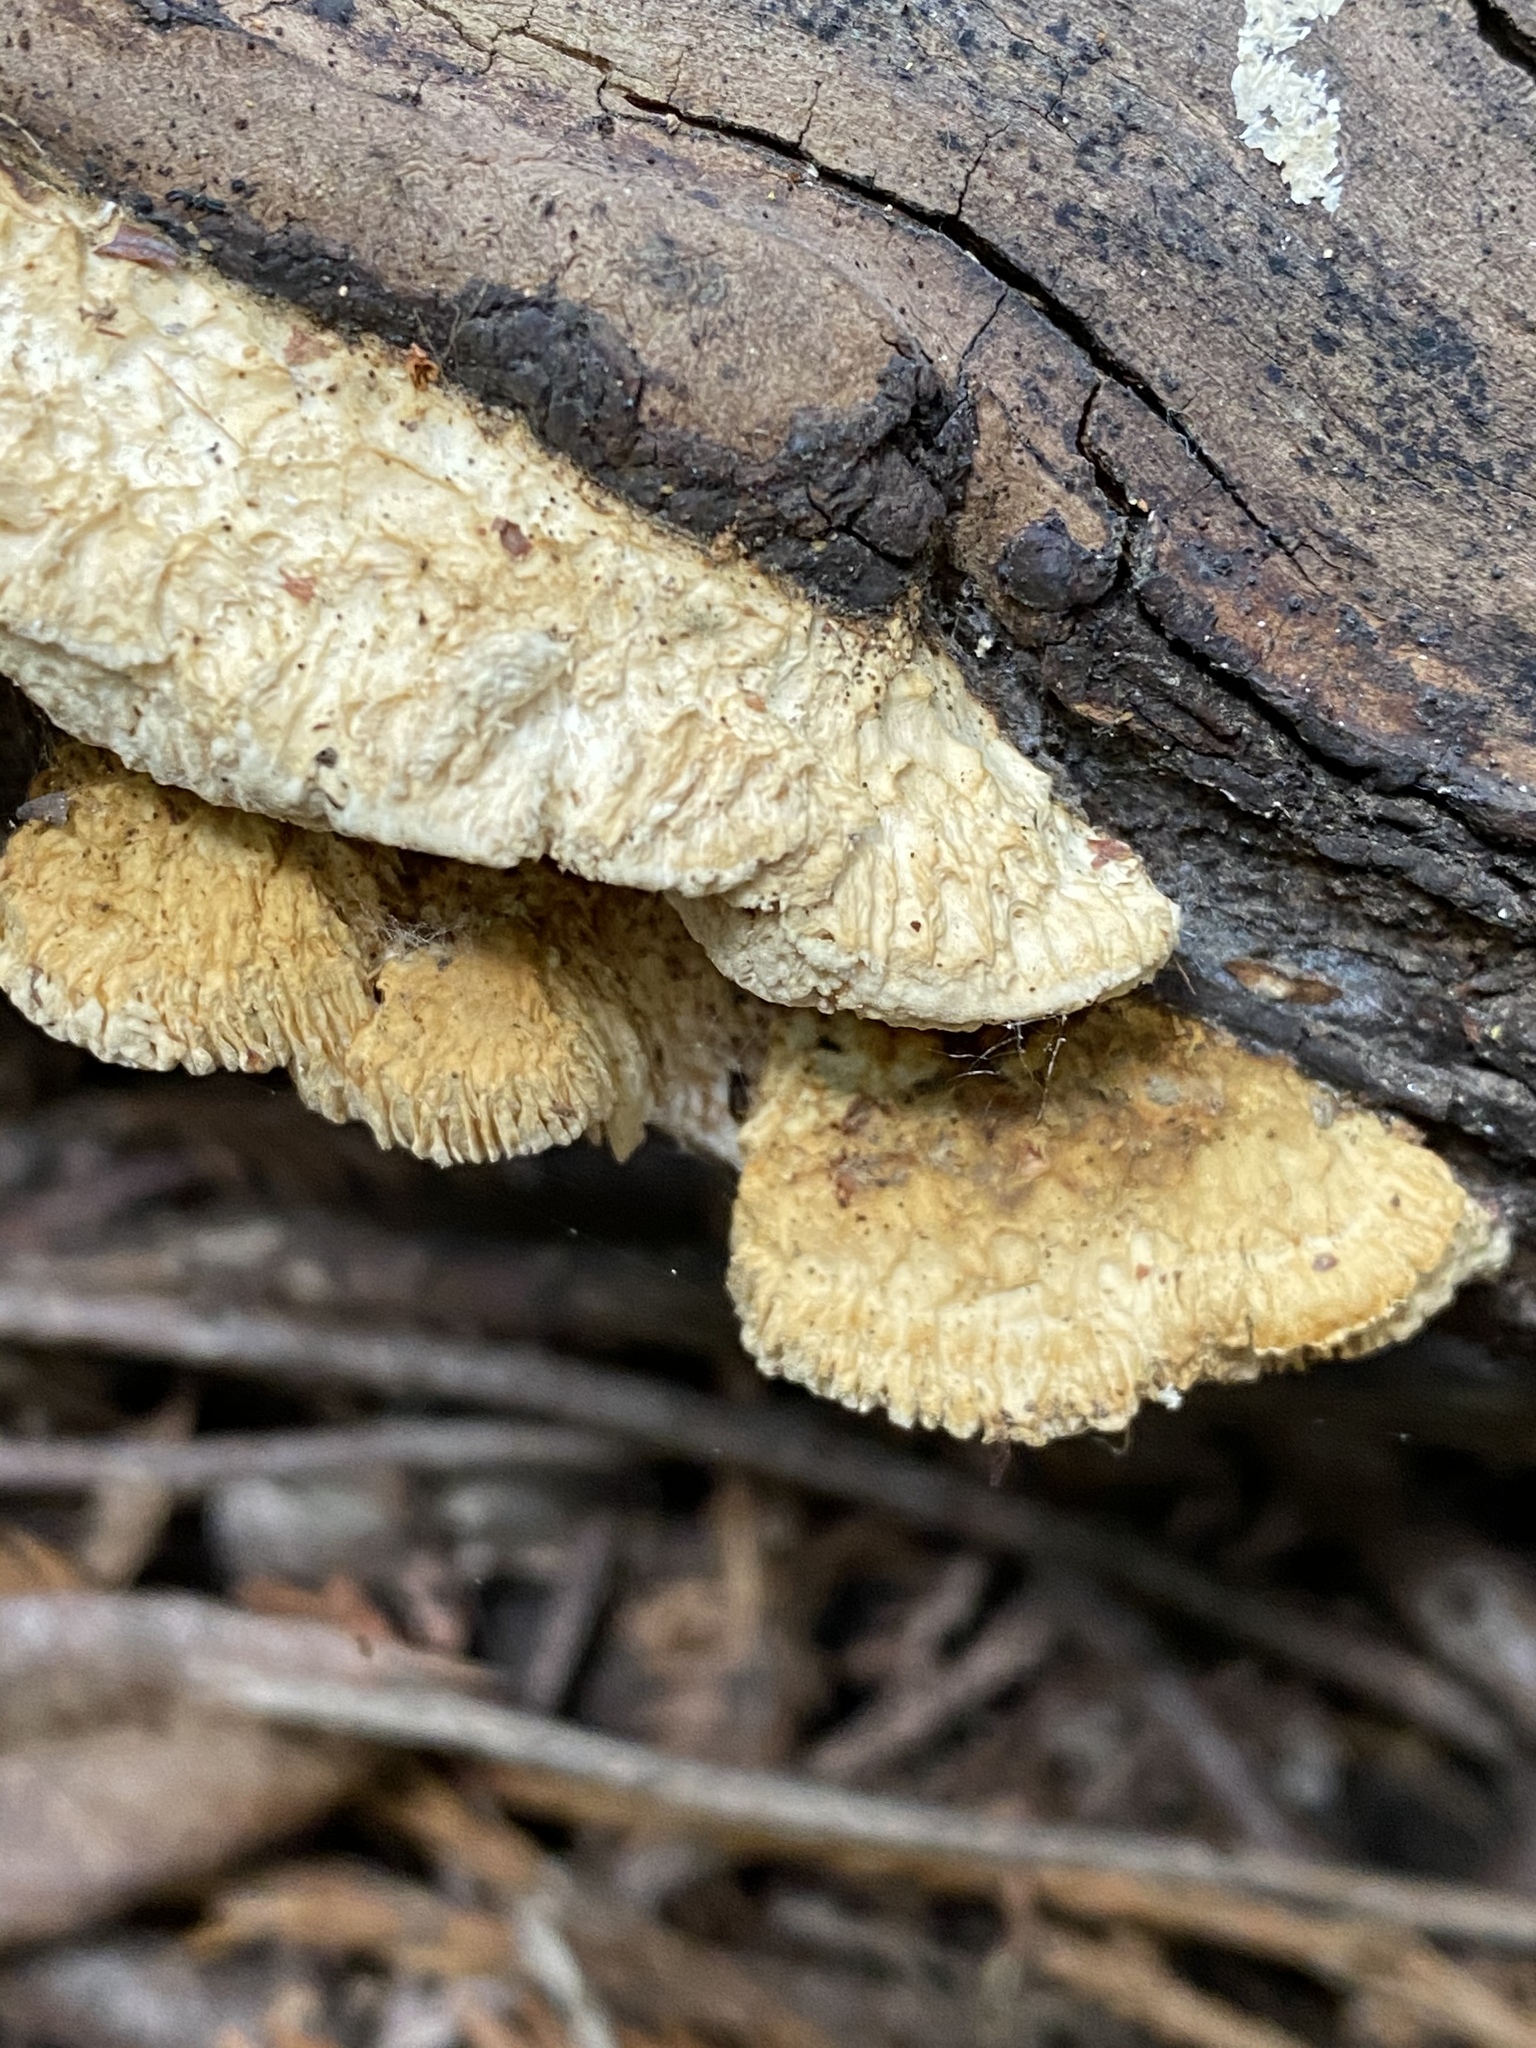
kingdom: Fungi
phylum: Basidiomycota
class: Agaricomycetes
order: Polyporales
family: Fomitopsidaceae
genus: Fomitopsis
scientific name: Fomitopsis
